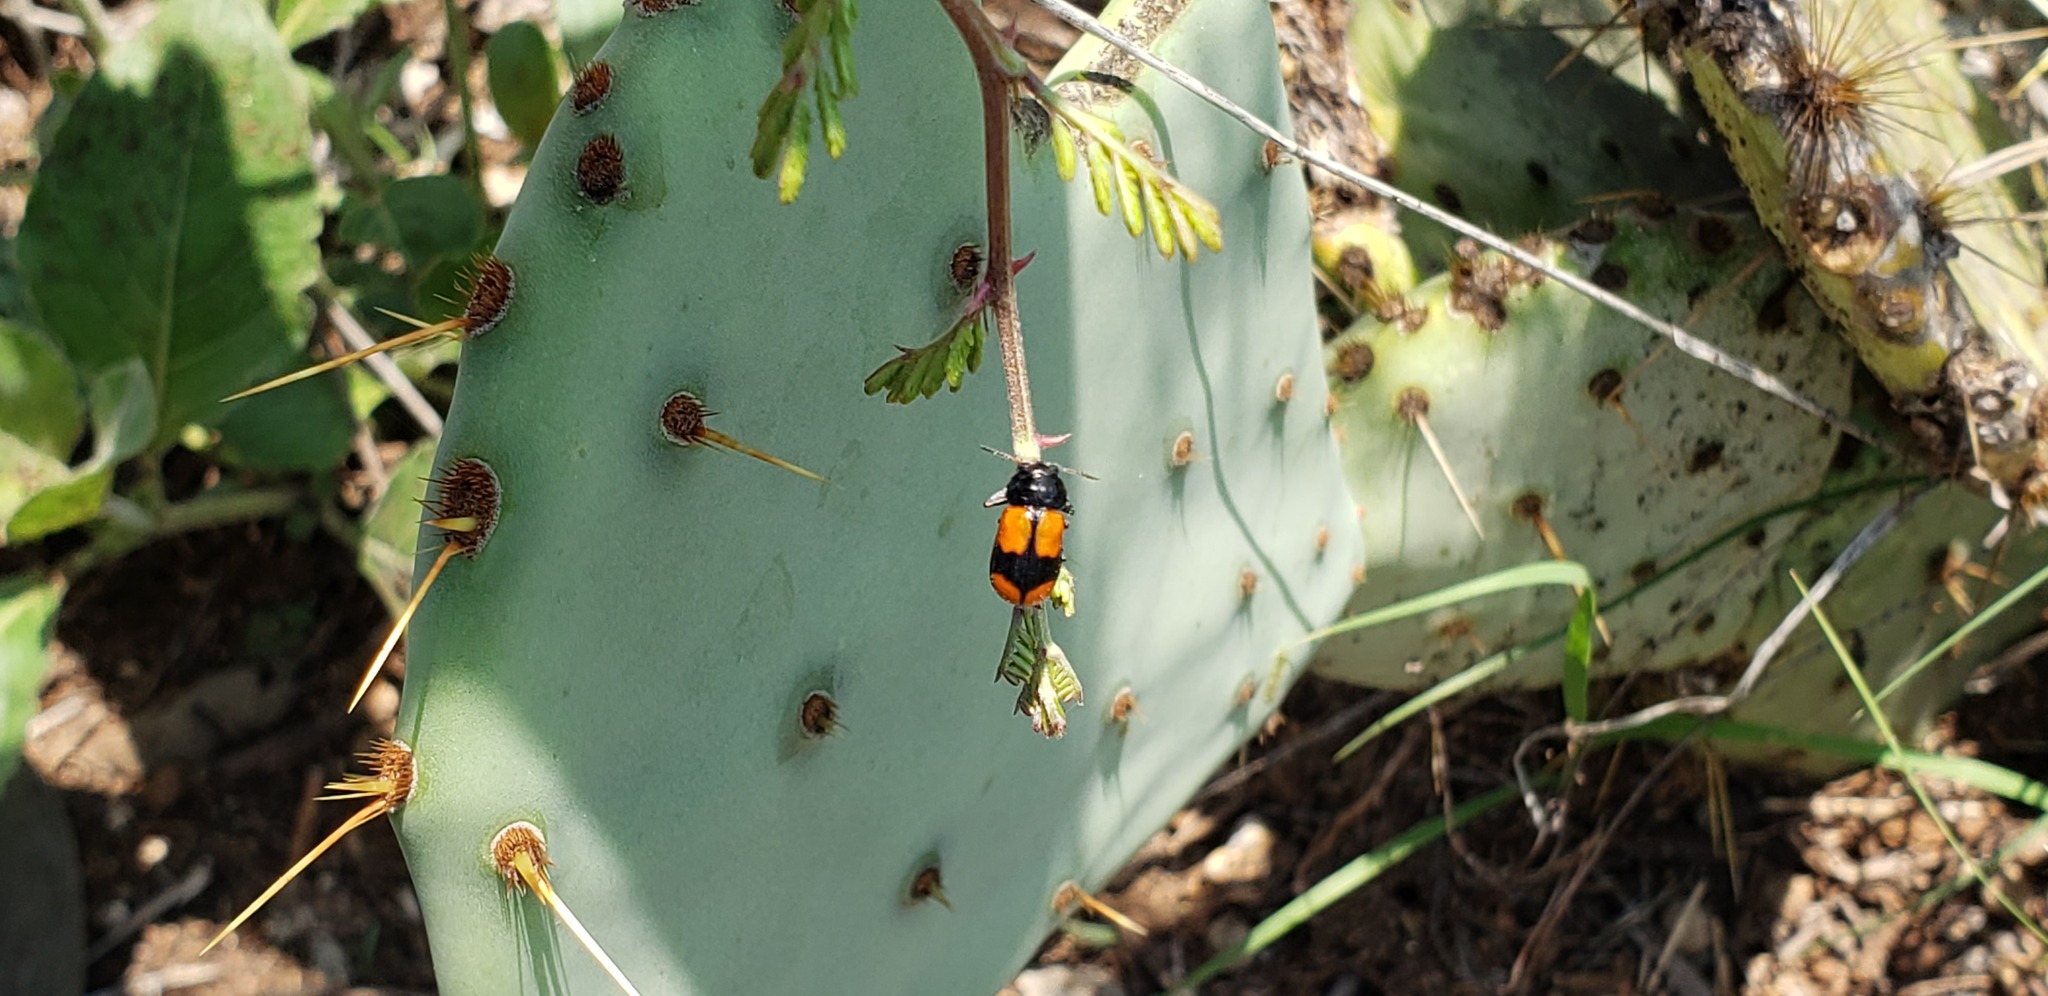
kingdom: Animalia
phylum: Arthropoda
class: Insecta
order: Coleoptera
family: Chrysomelidae
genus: Anomoea
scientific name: Anomoea rufifrons
